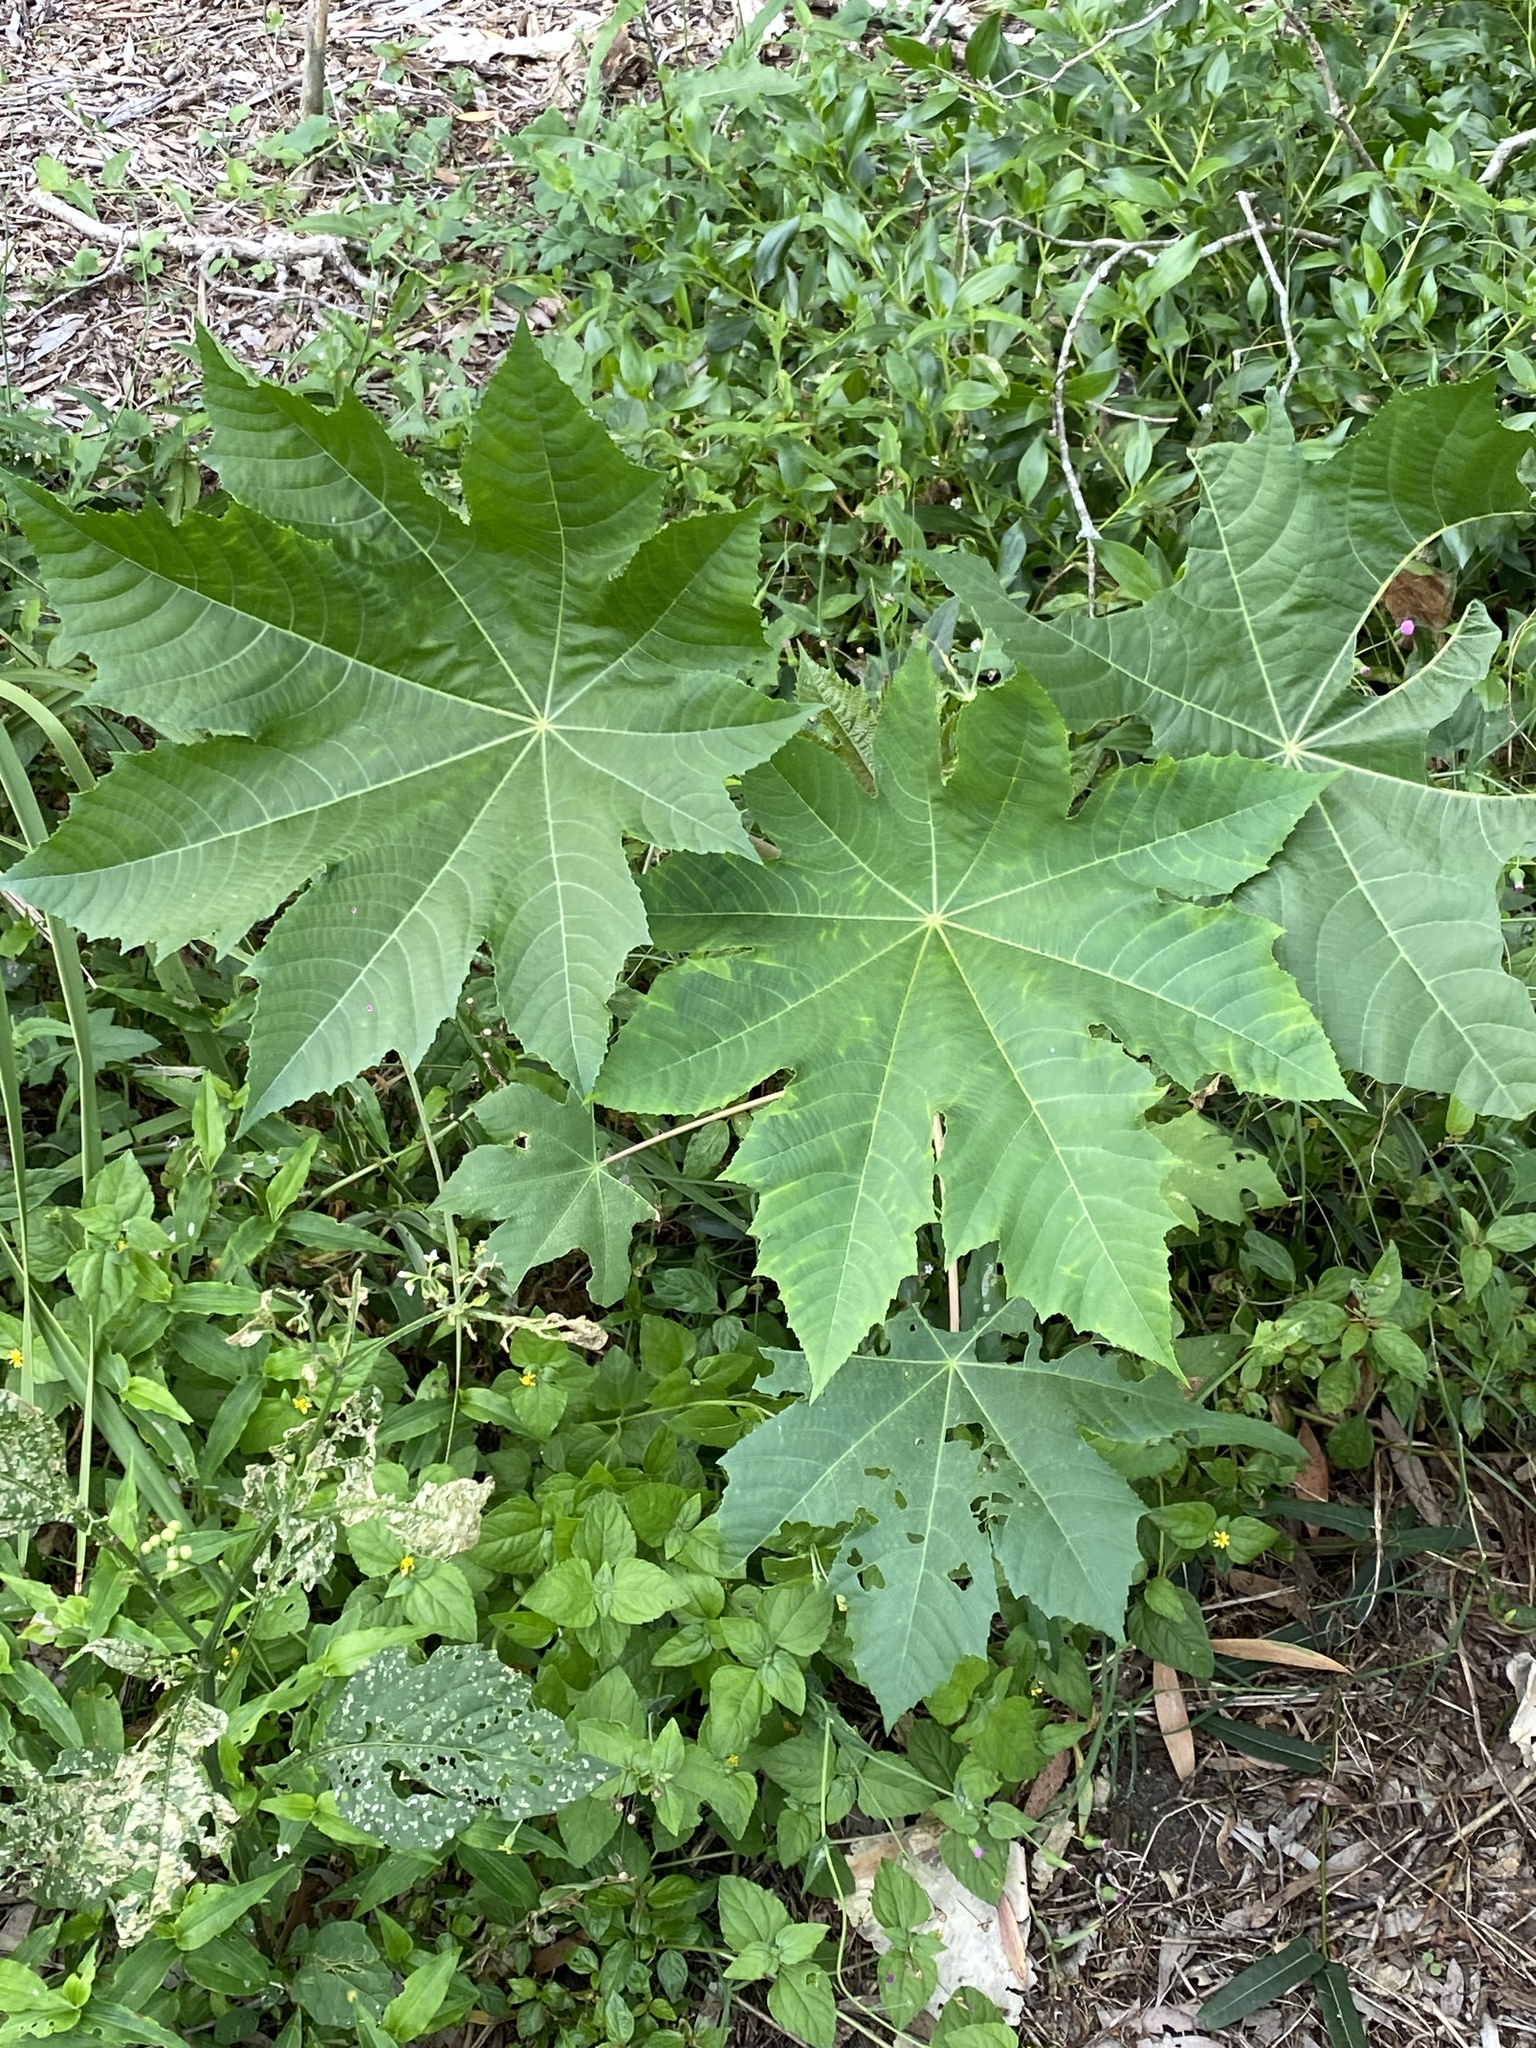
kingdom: Plantae
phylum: Tracheophyta
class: Magnoliopsida
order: Malpighiales
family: Euphorbiaceae
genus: Ricinus
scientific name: Ricinus communis
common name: Castor-oil-plant
